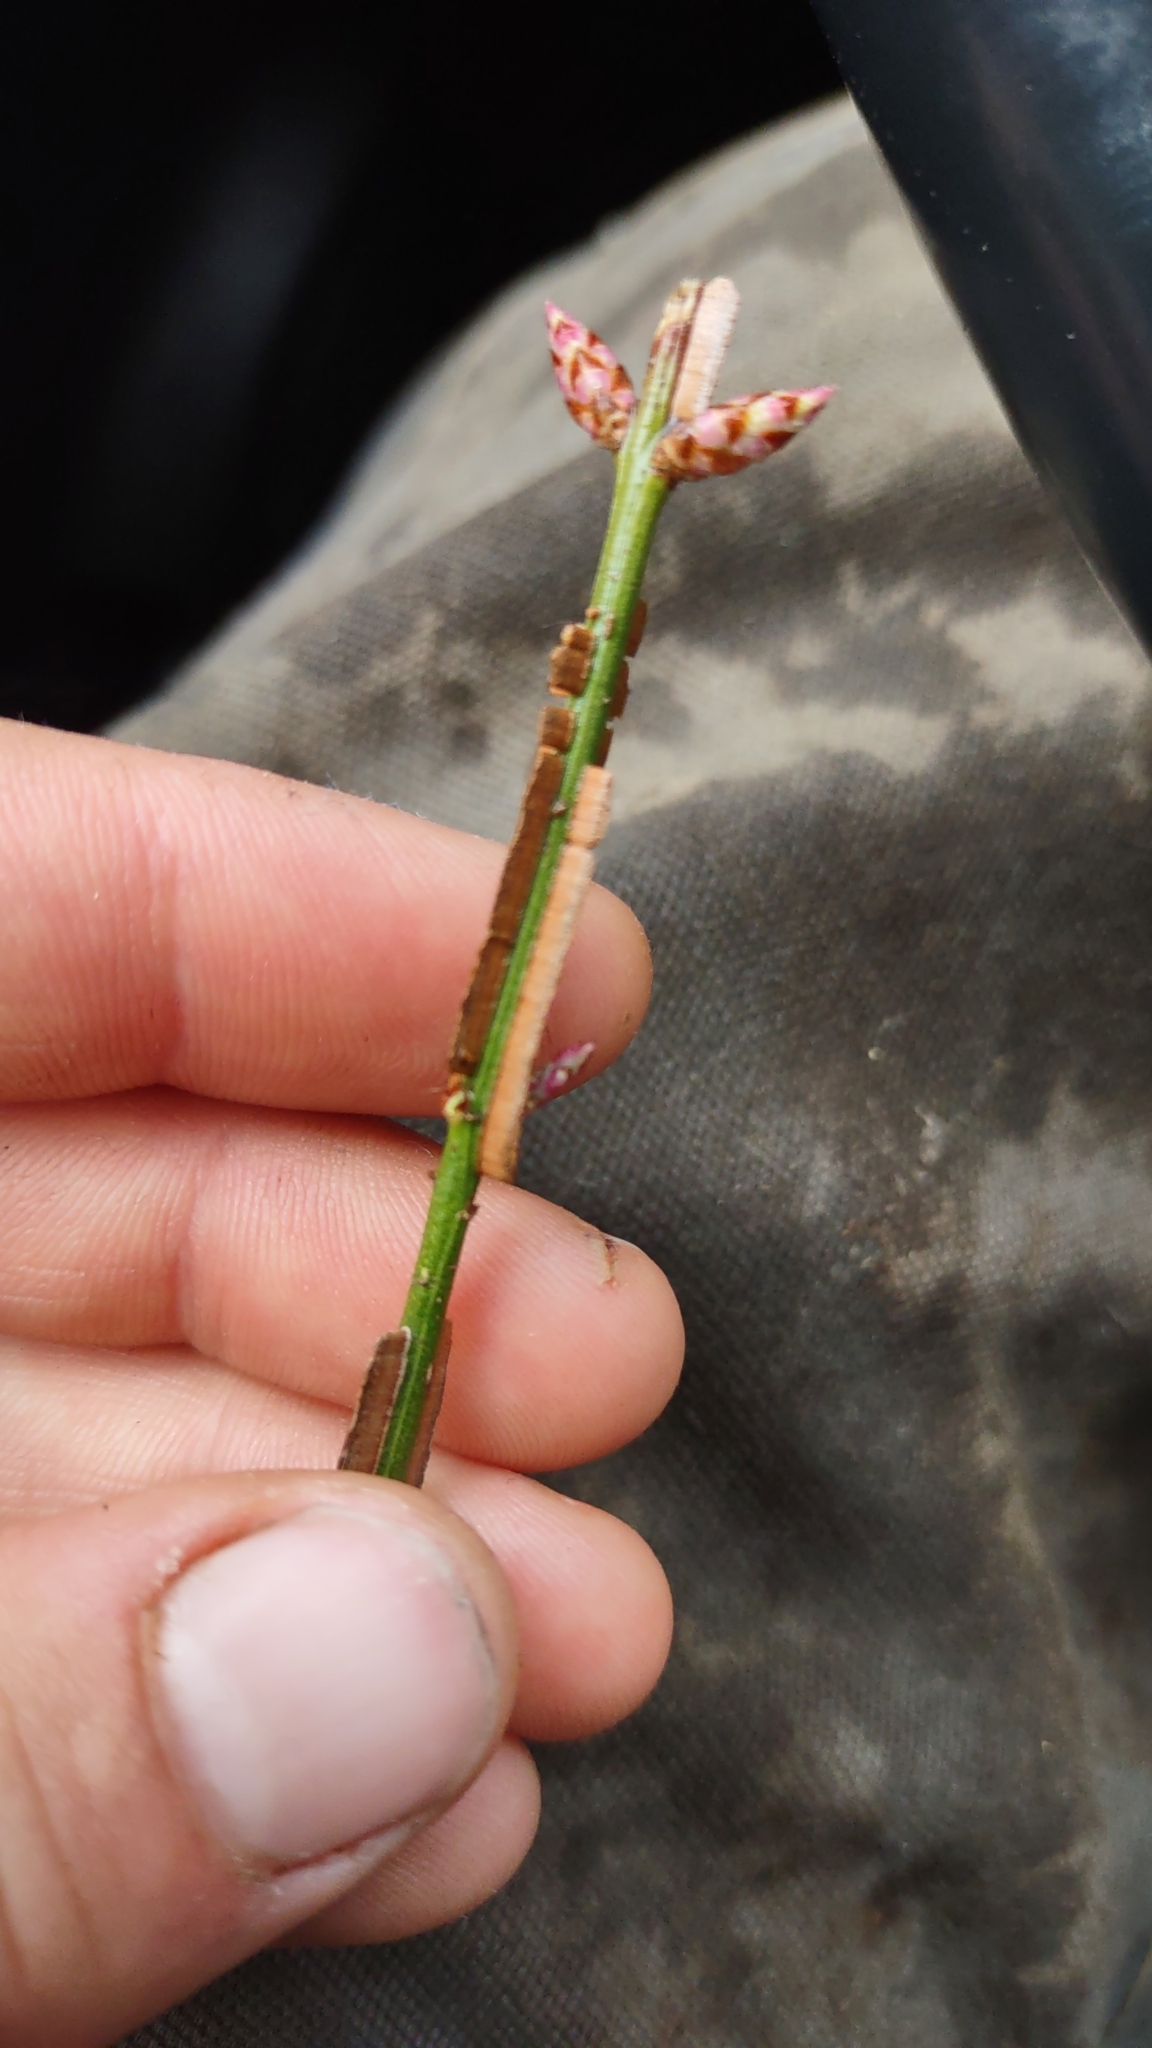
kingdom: Plantae
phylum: Tracheophyta
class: Magnoliopsida
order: Celastrales
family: Celastraceae
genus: Euonymus
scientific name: Euonymus alatus
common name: Winged euonymus
